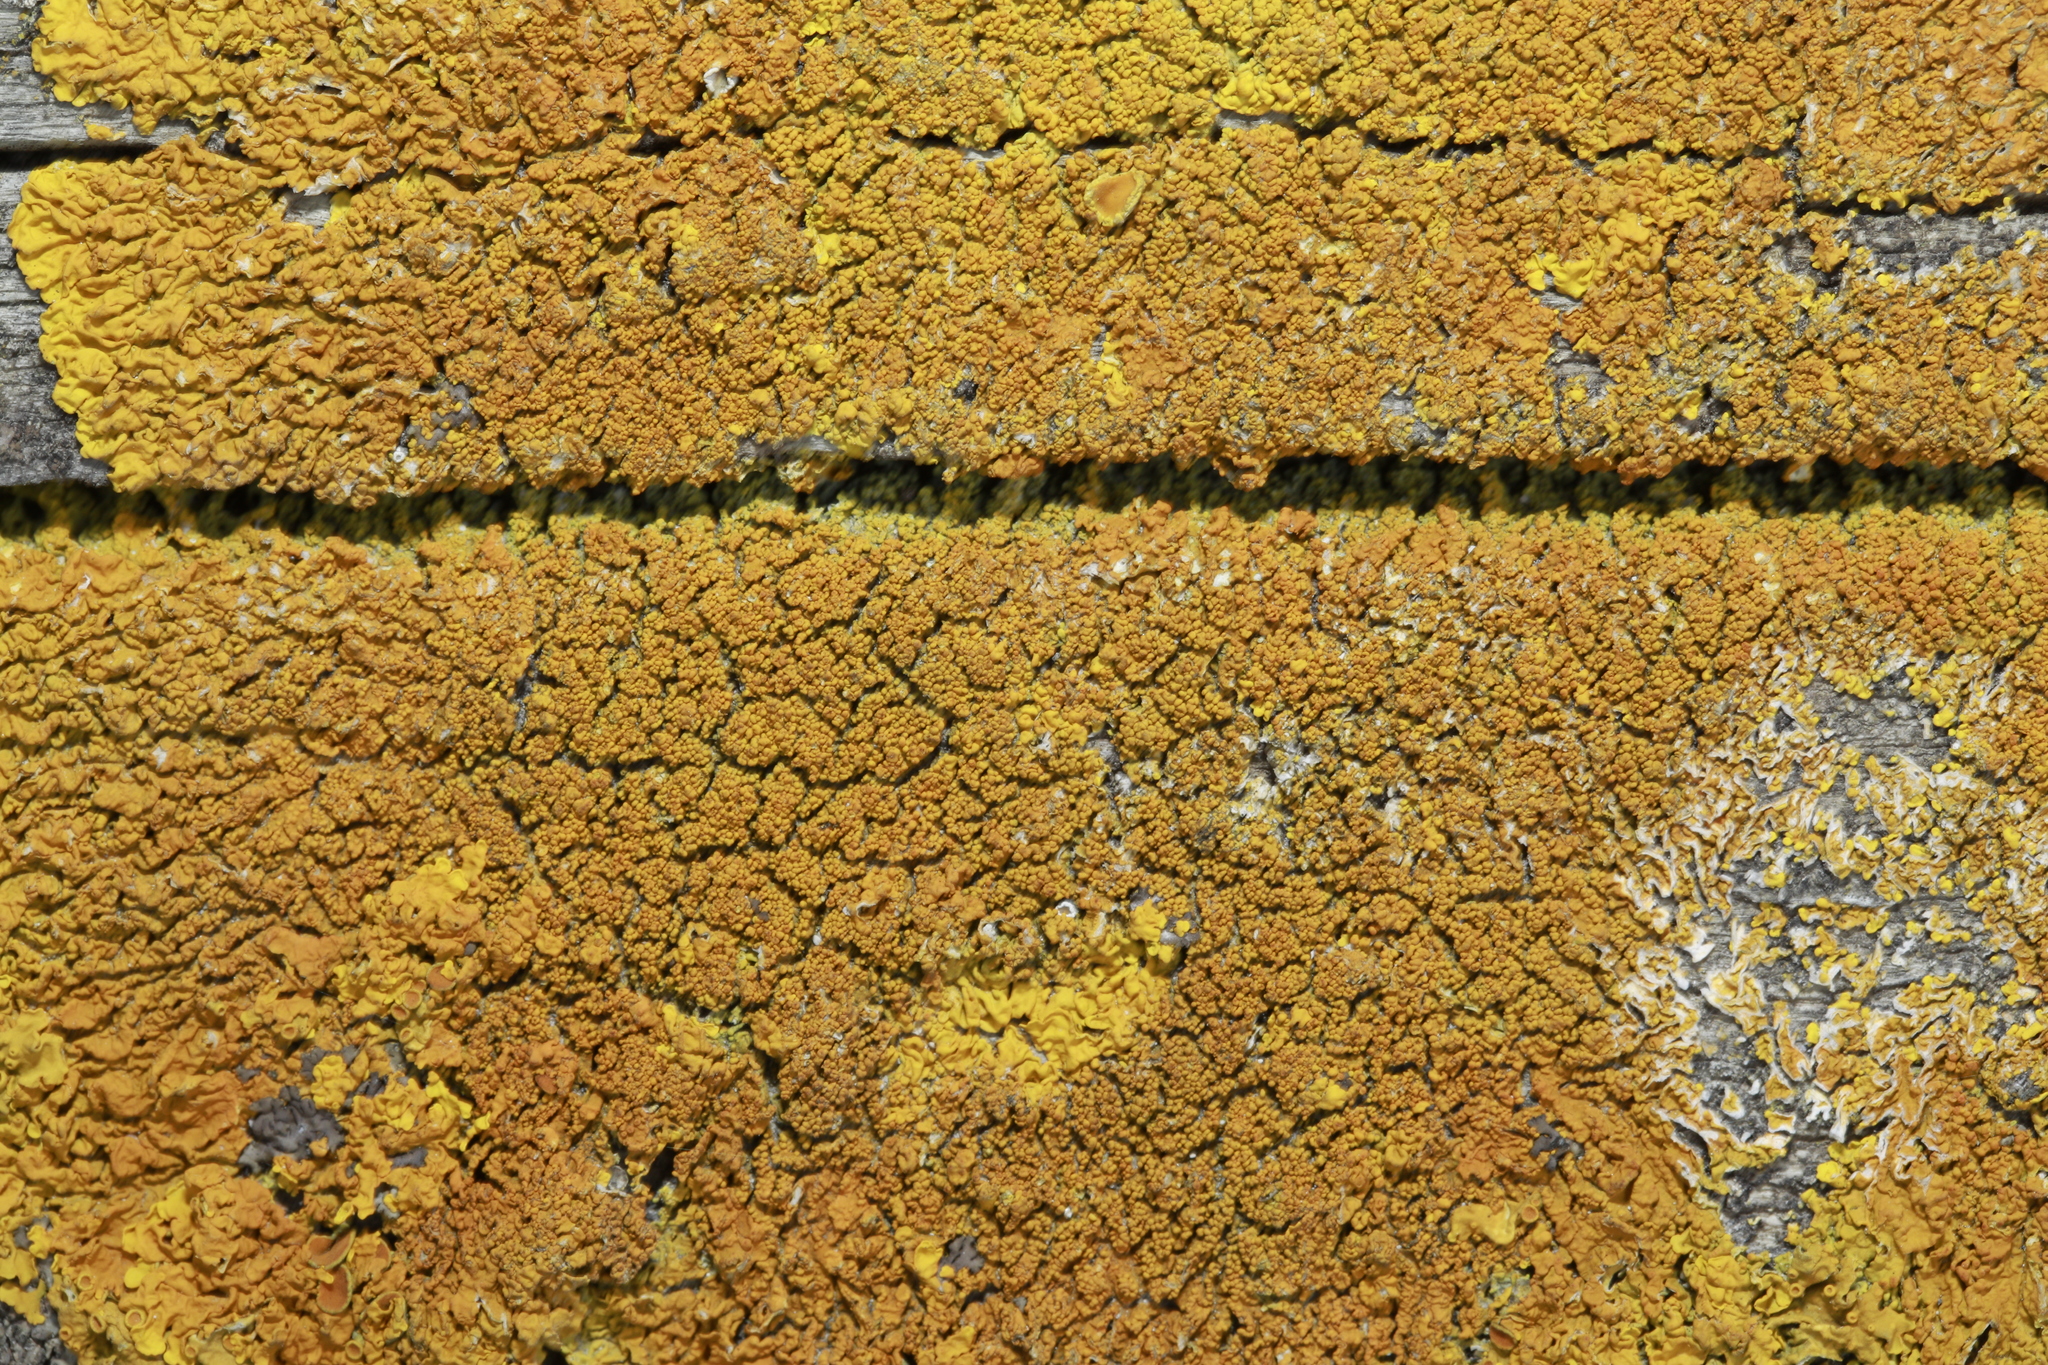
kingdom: Fungi
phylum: Ascomycota
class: Lecanoromycetes
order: Teloschistales
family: Teloschistaceae
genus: Xanthoria
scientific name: Xanthoria calcicola
